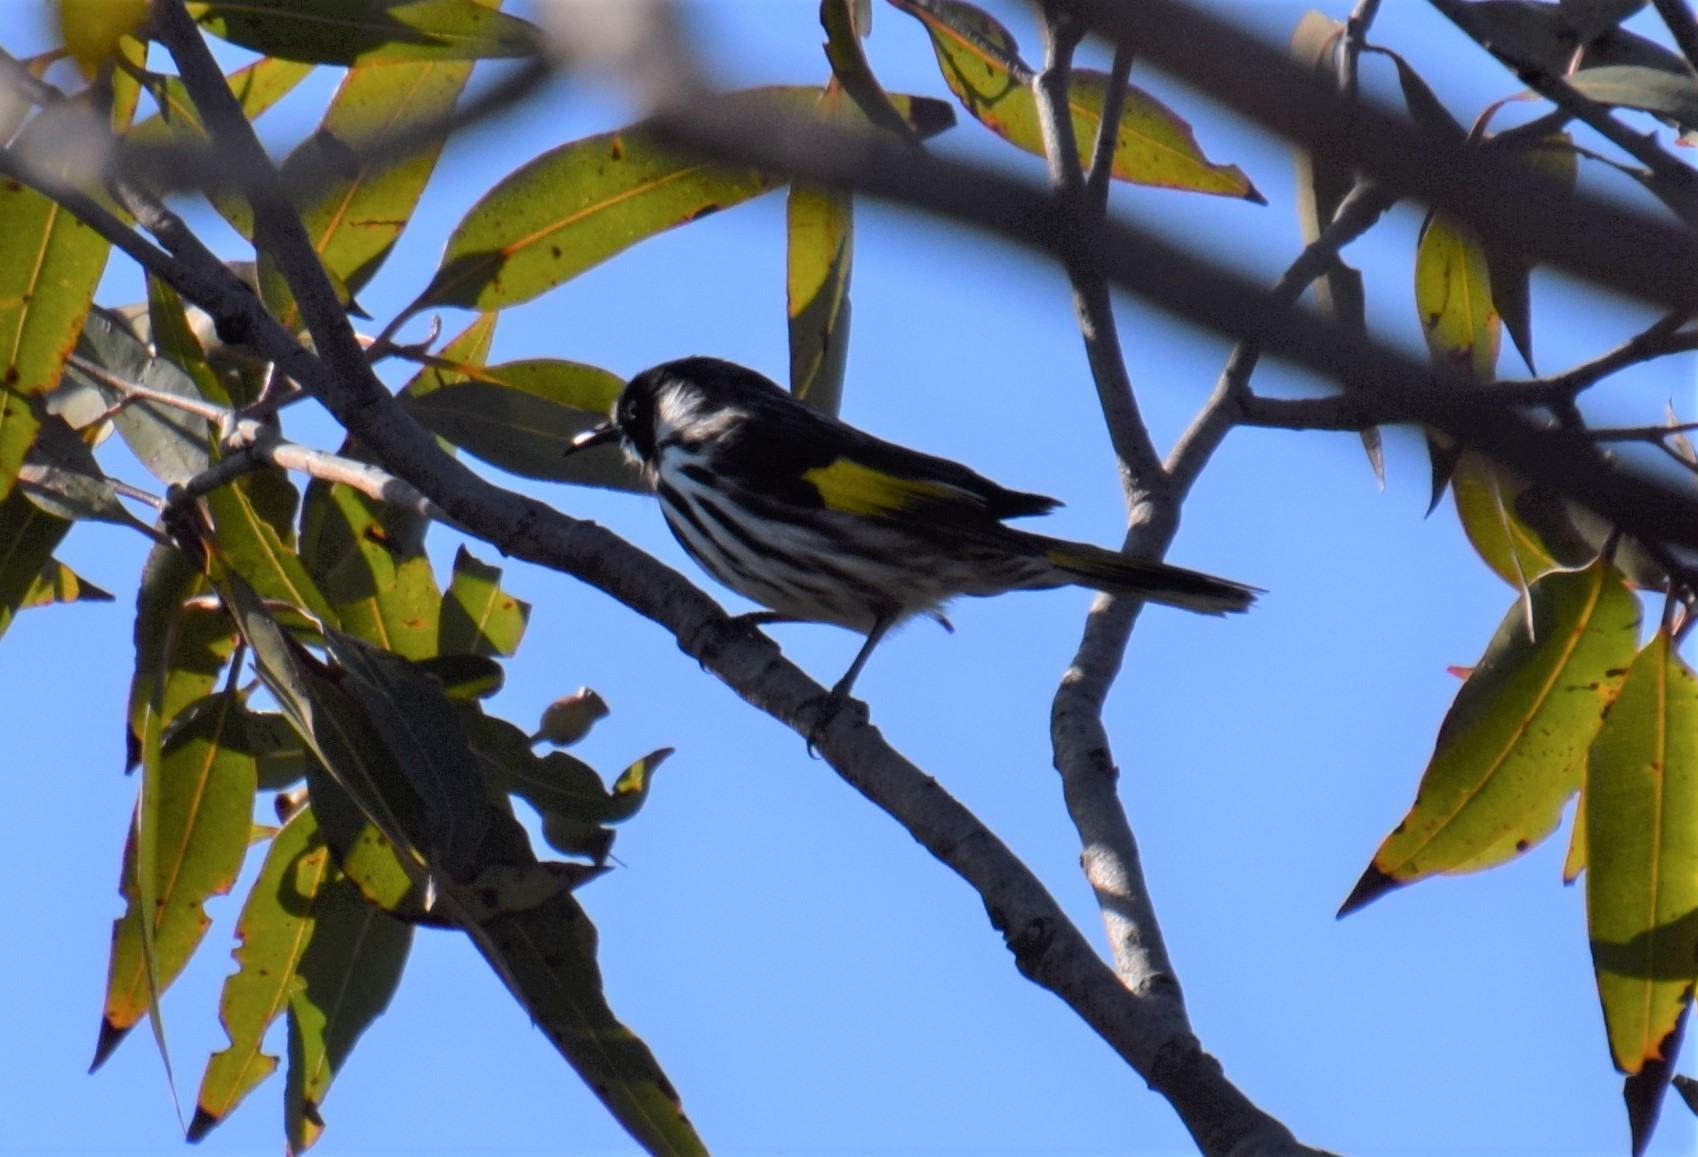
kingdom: Animalia
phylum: Chordata
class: Aves
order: Passeriformes
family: Meliphagidae
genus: Phylidonyris
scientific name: Phylidonyris novaehollandiae
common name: New holland honeyeater
